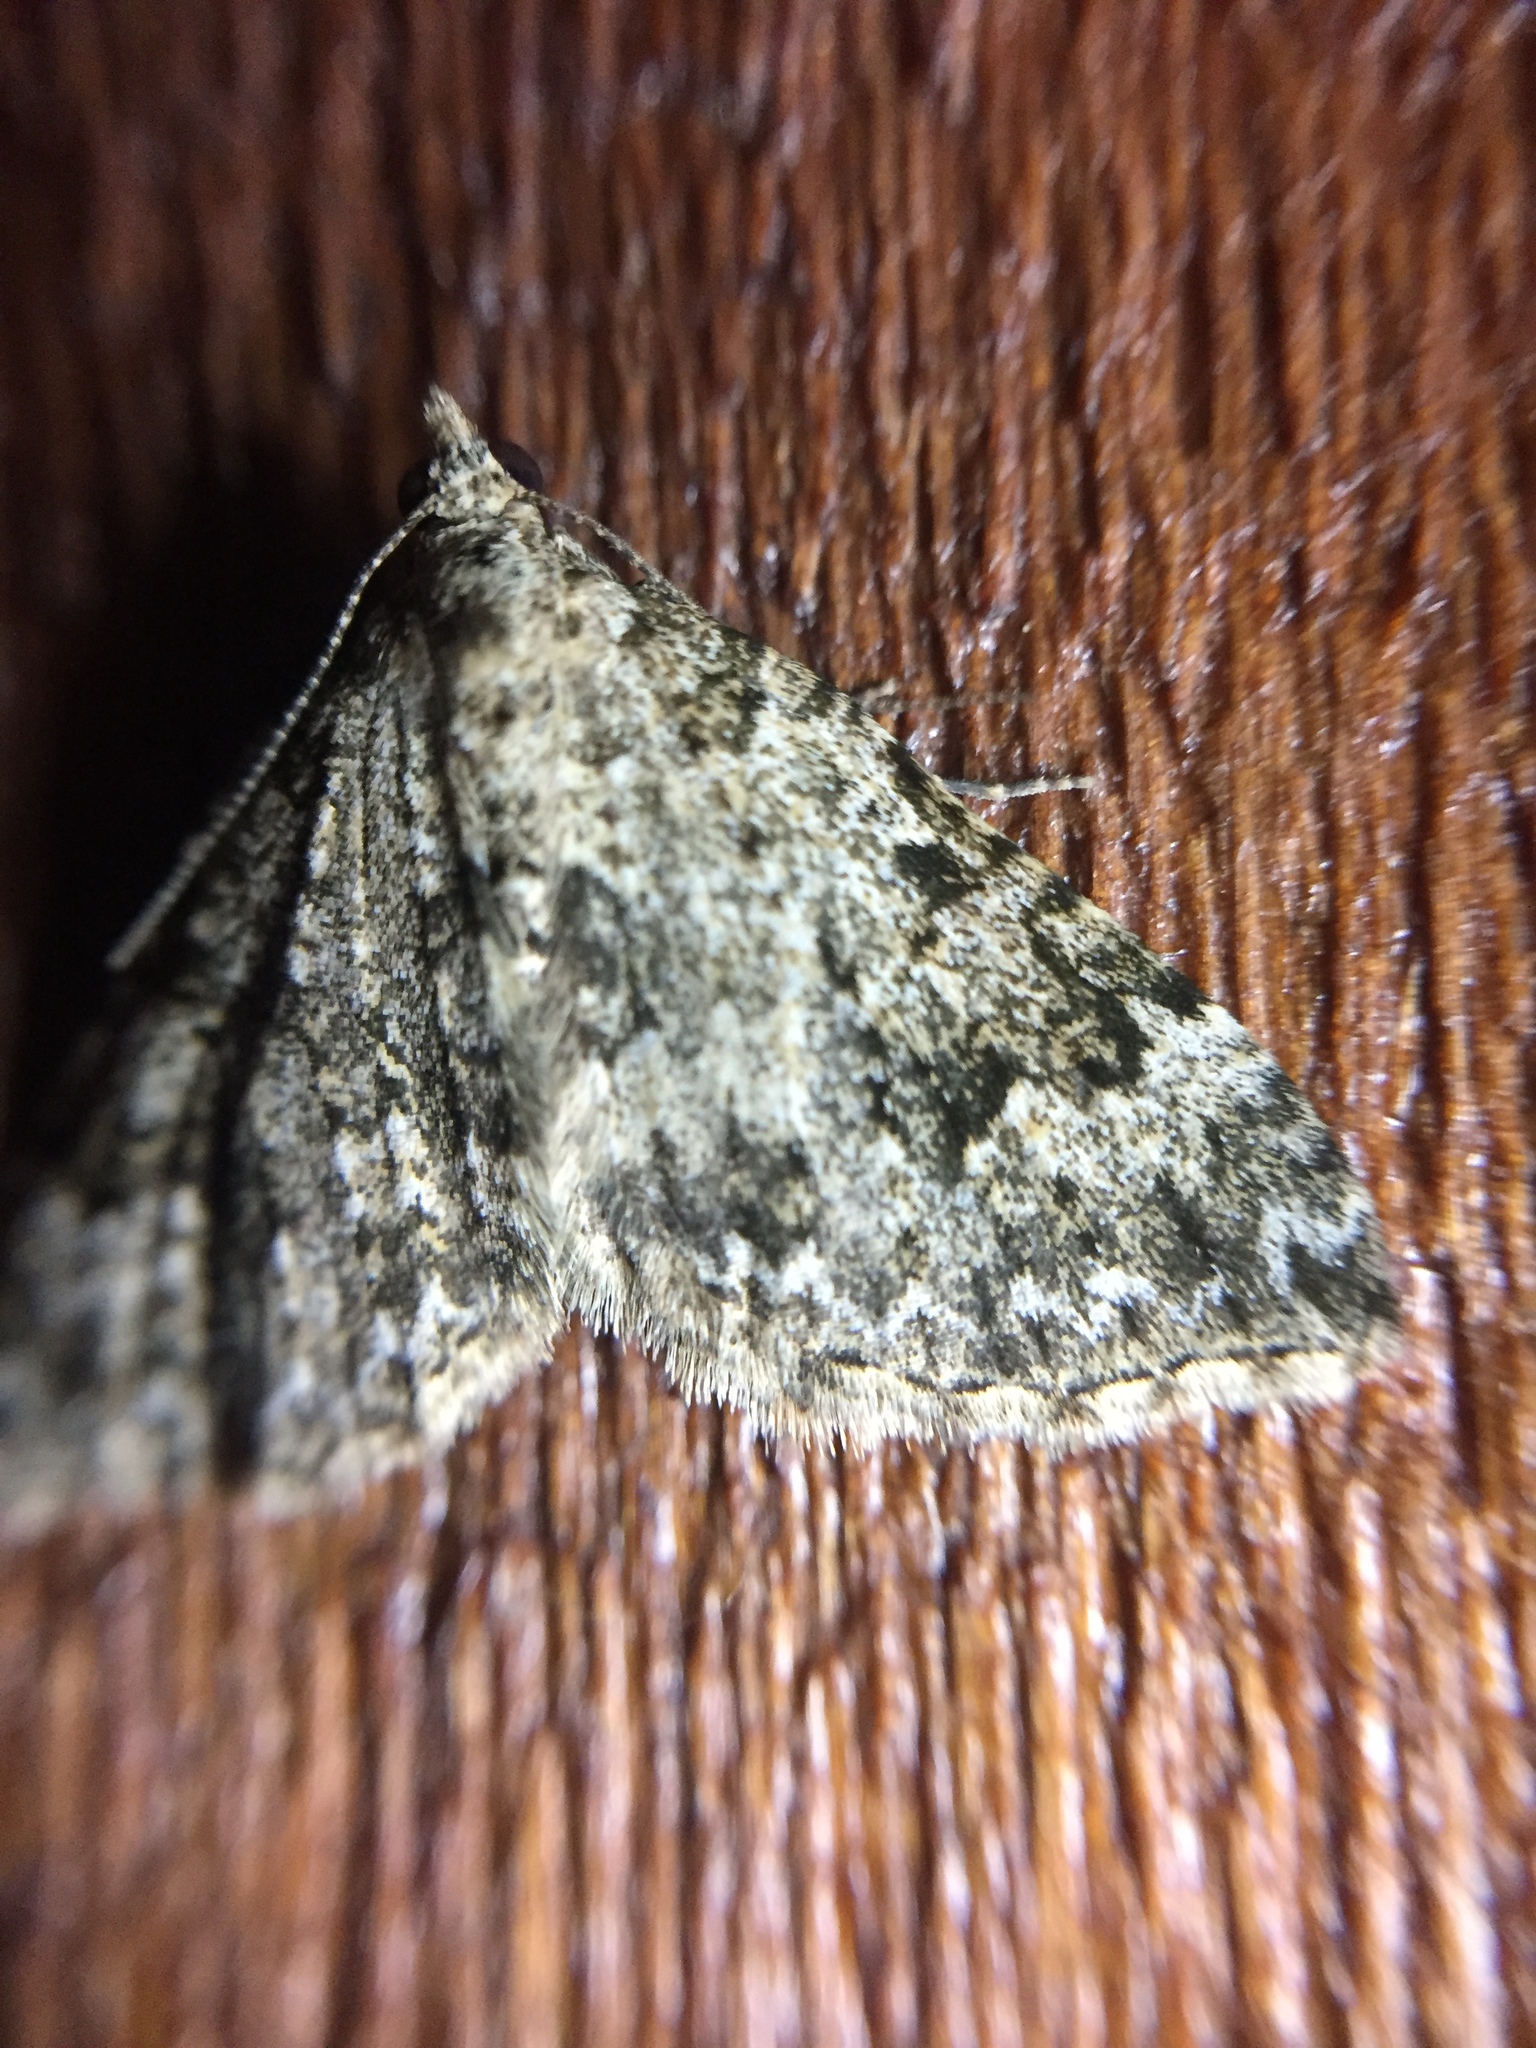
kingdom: Animalia
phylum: Arthropoda
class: Insecta
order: Lepidoptera
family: Geometridae
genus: Helastia
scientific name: Helastia cinerearia
